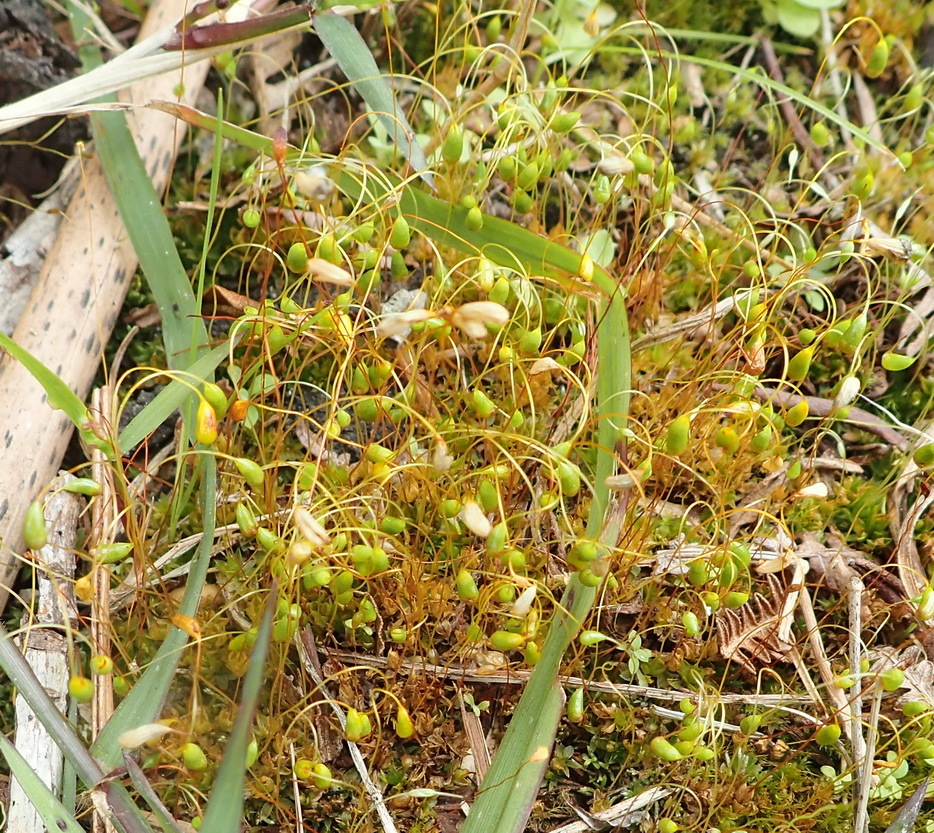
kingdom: Plantae
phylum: Bryophyta
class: Bryopsida
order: Funariales
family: Funariaceae
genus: Funaria
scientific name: Funaria hygrometrica
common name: Common cord moss
